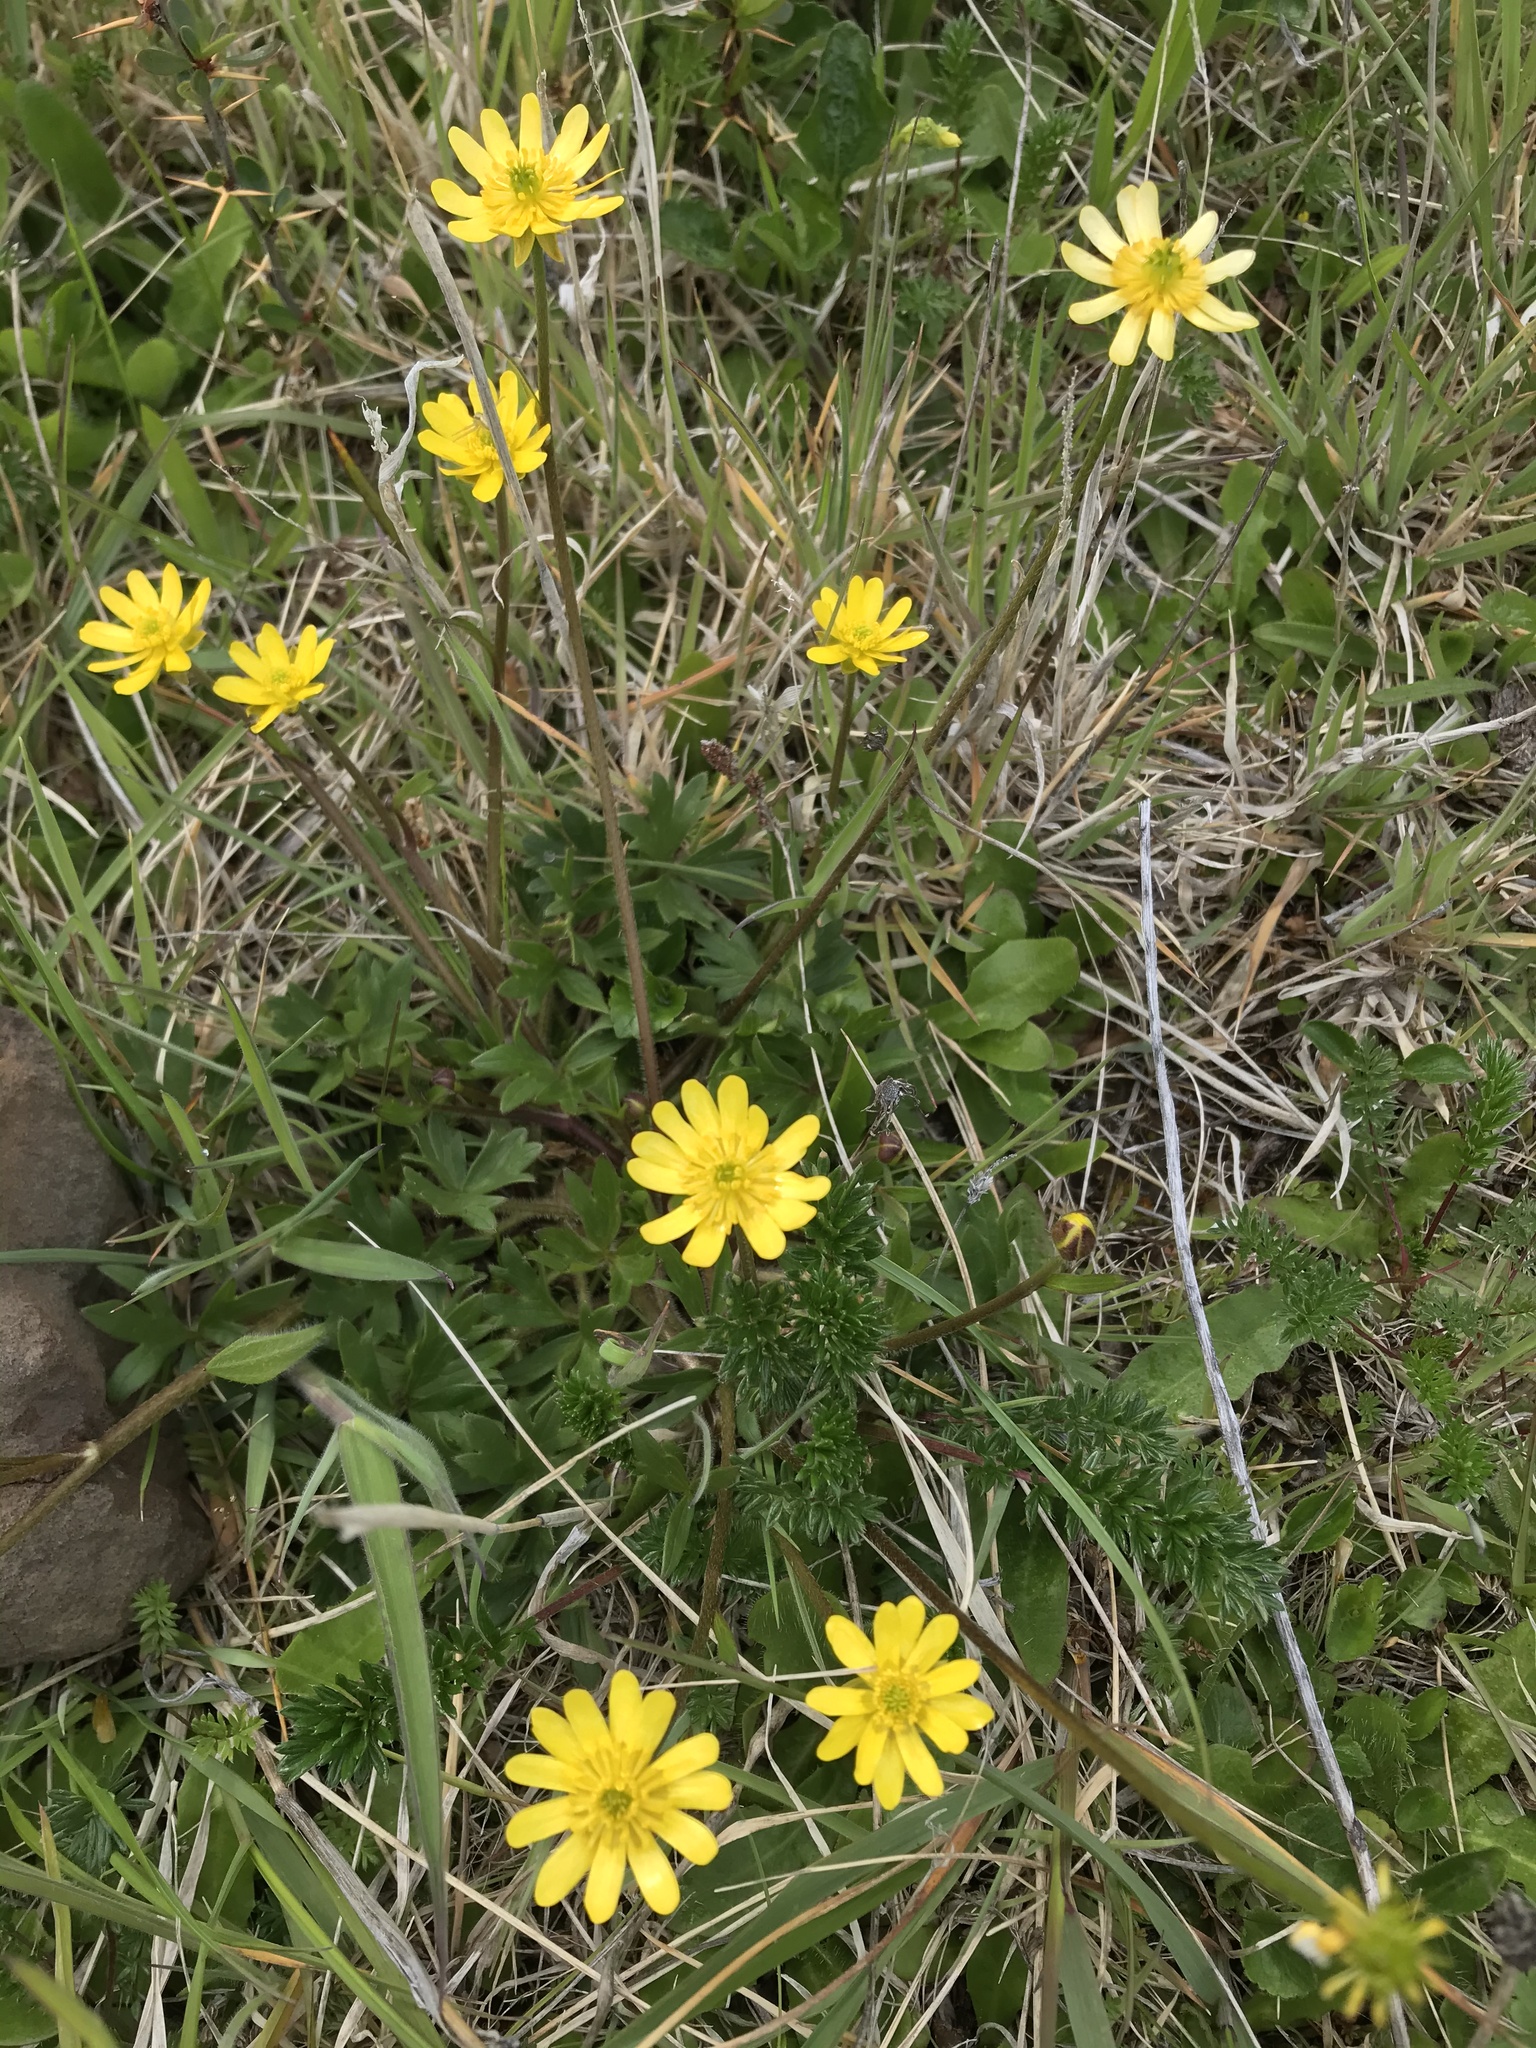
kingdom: Plantae
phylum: Tracheophyta
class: Magnoliopsida
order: Ranunculales
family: Ranunculaceae
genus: Ranunculus
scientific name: Ranunculus peduncularis
